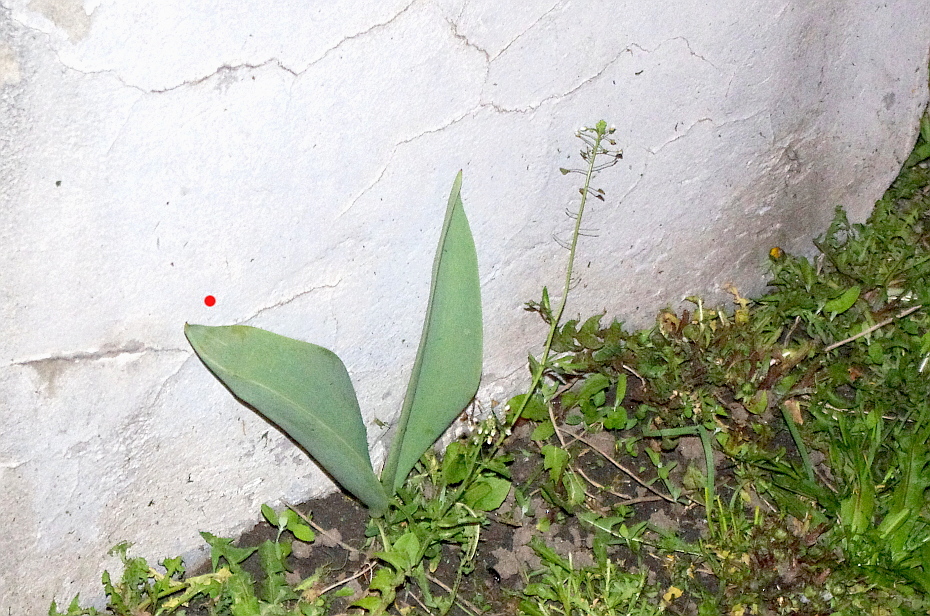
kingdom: Plantae
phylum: Tracheophyta
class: Liliopsida
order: Liliales
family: Liliaceae
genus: Tulipa
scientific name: Tulipa gesneriana
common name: Garden tulip
